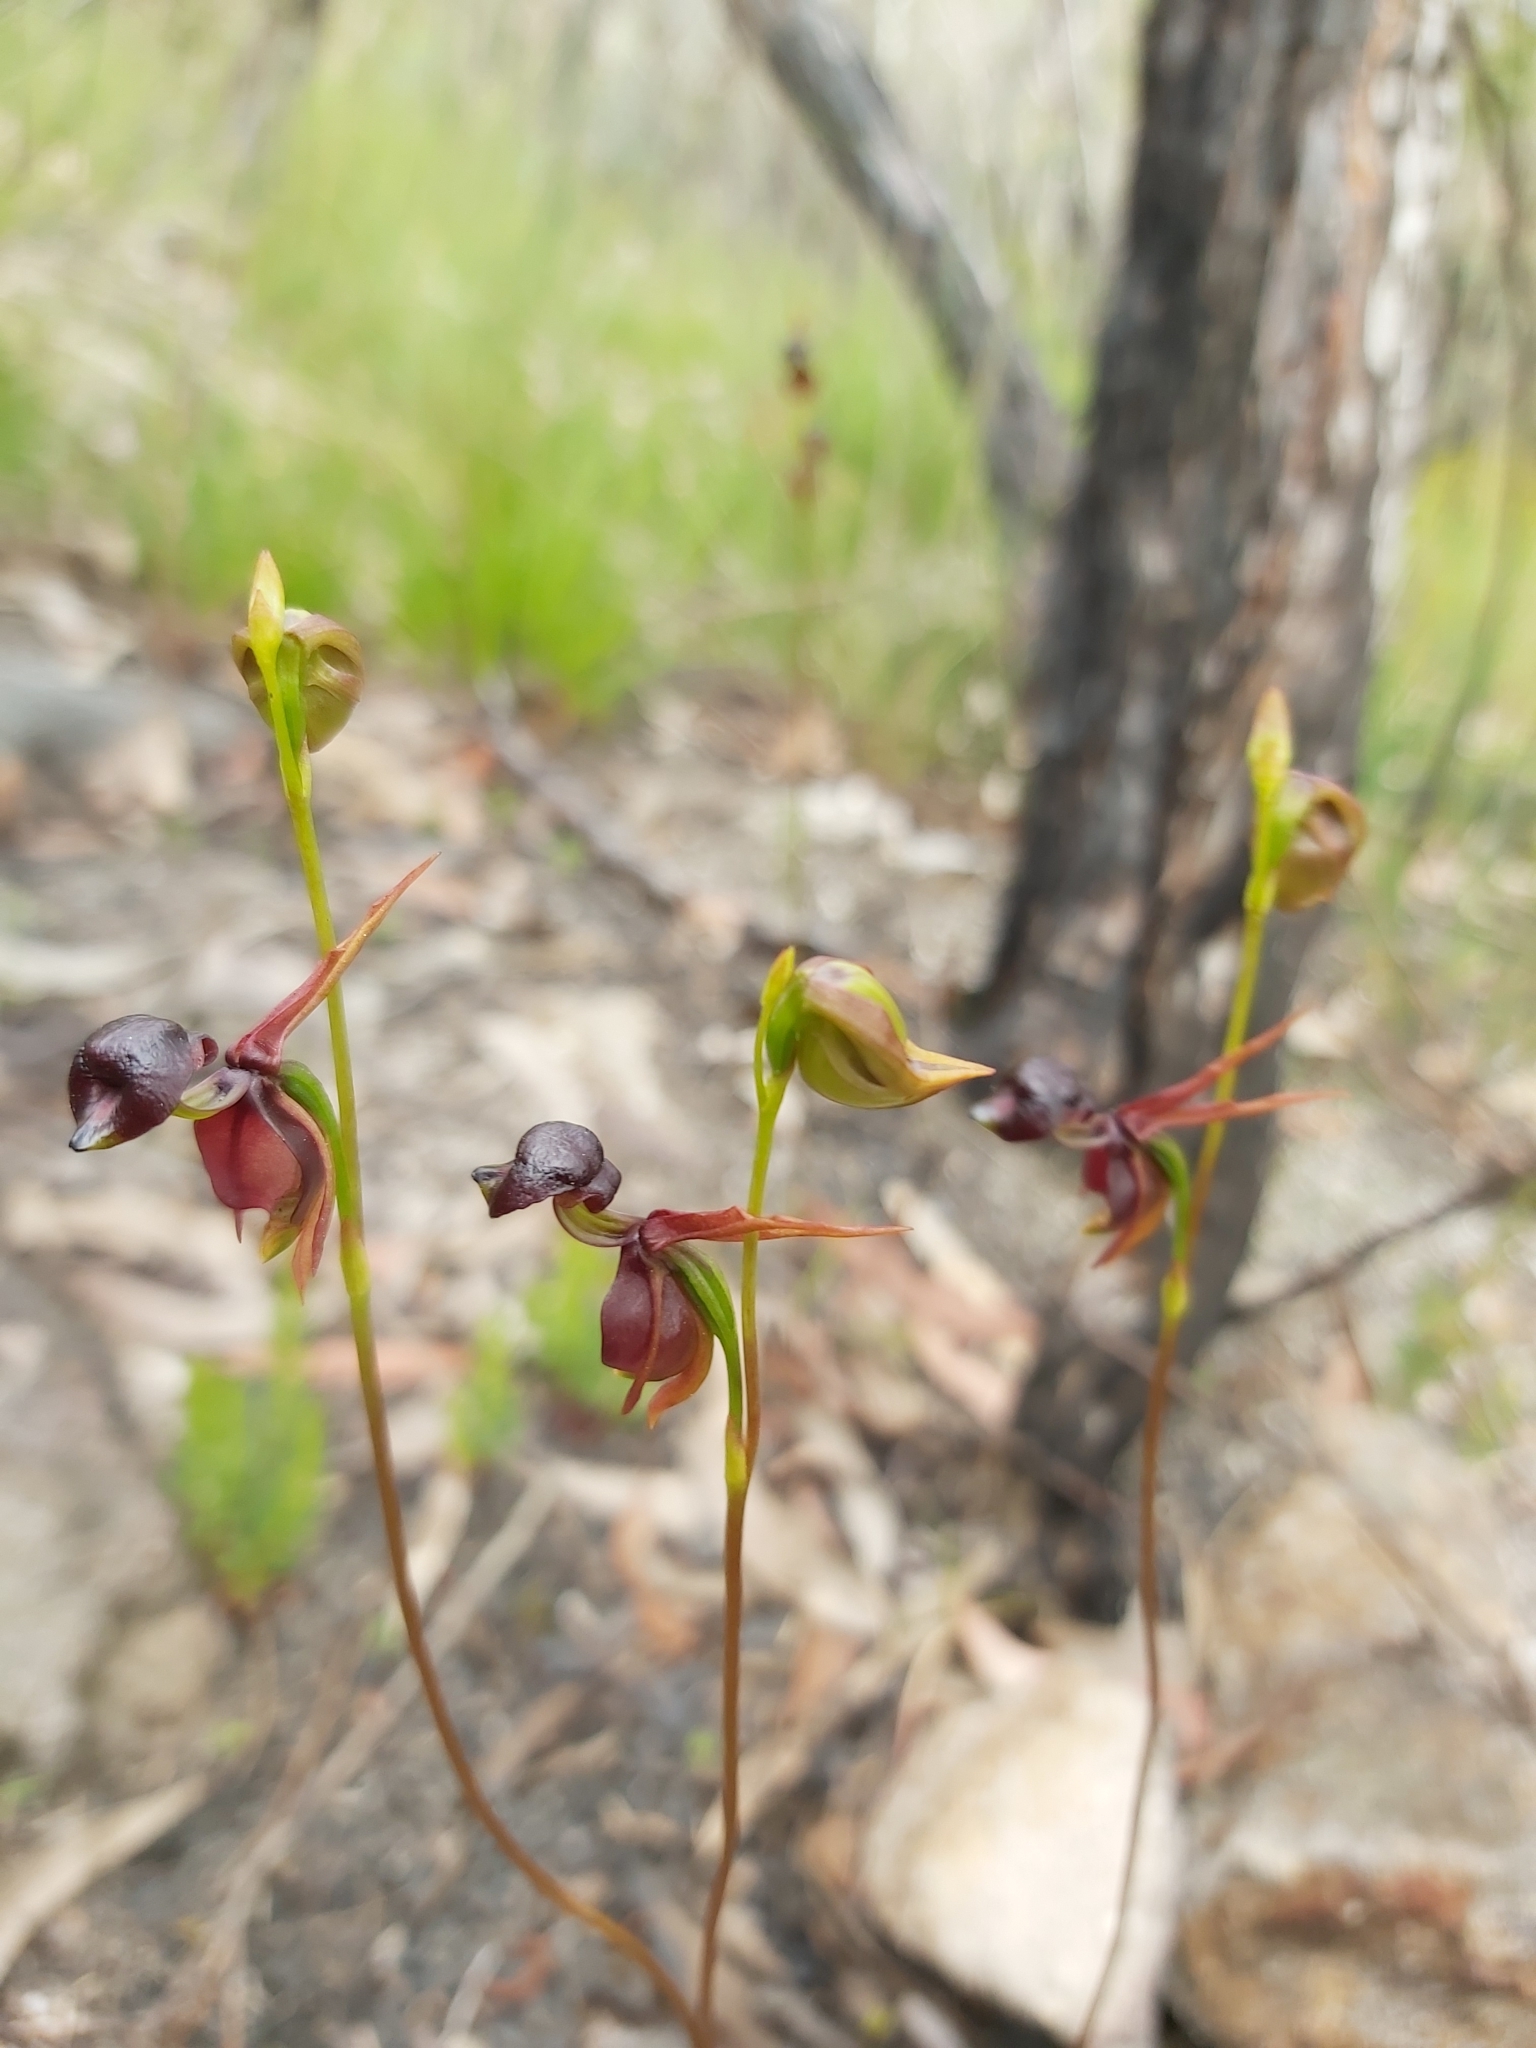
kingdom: Plantae
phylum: Tracheophyta
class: Liliopsida
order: Asparagales
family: Orchidaceae
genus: Caleana
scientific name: Caleana major
